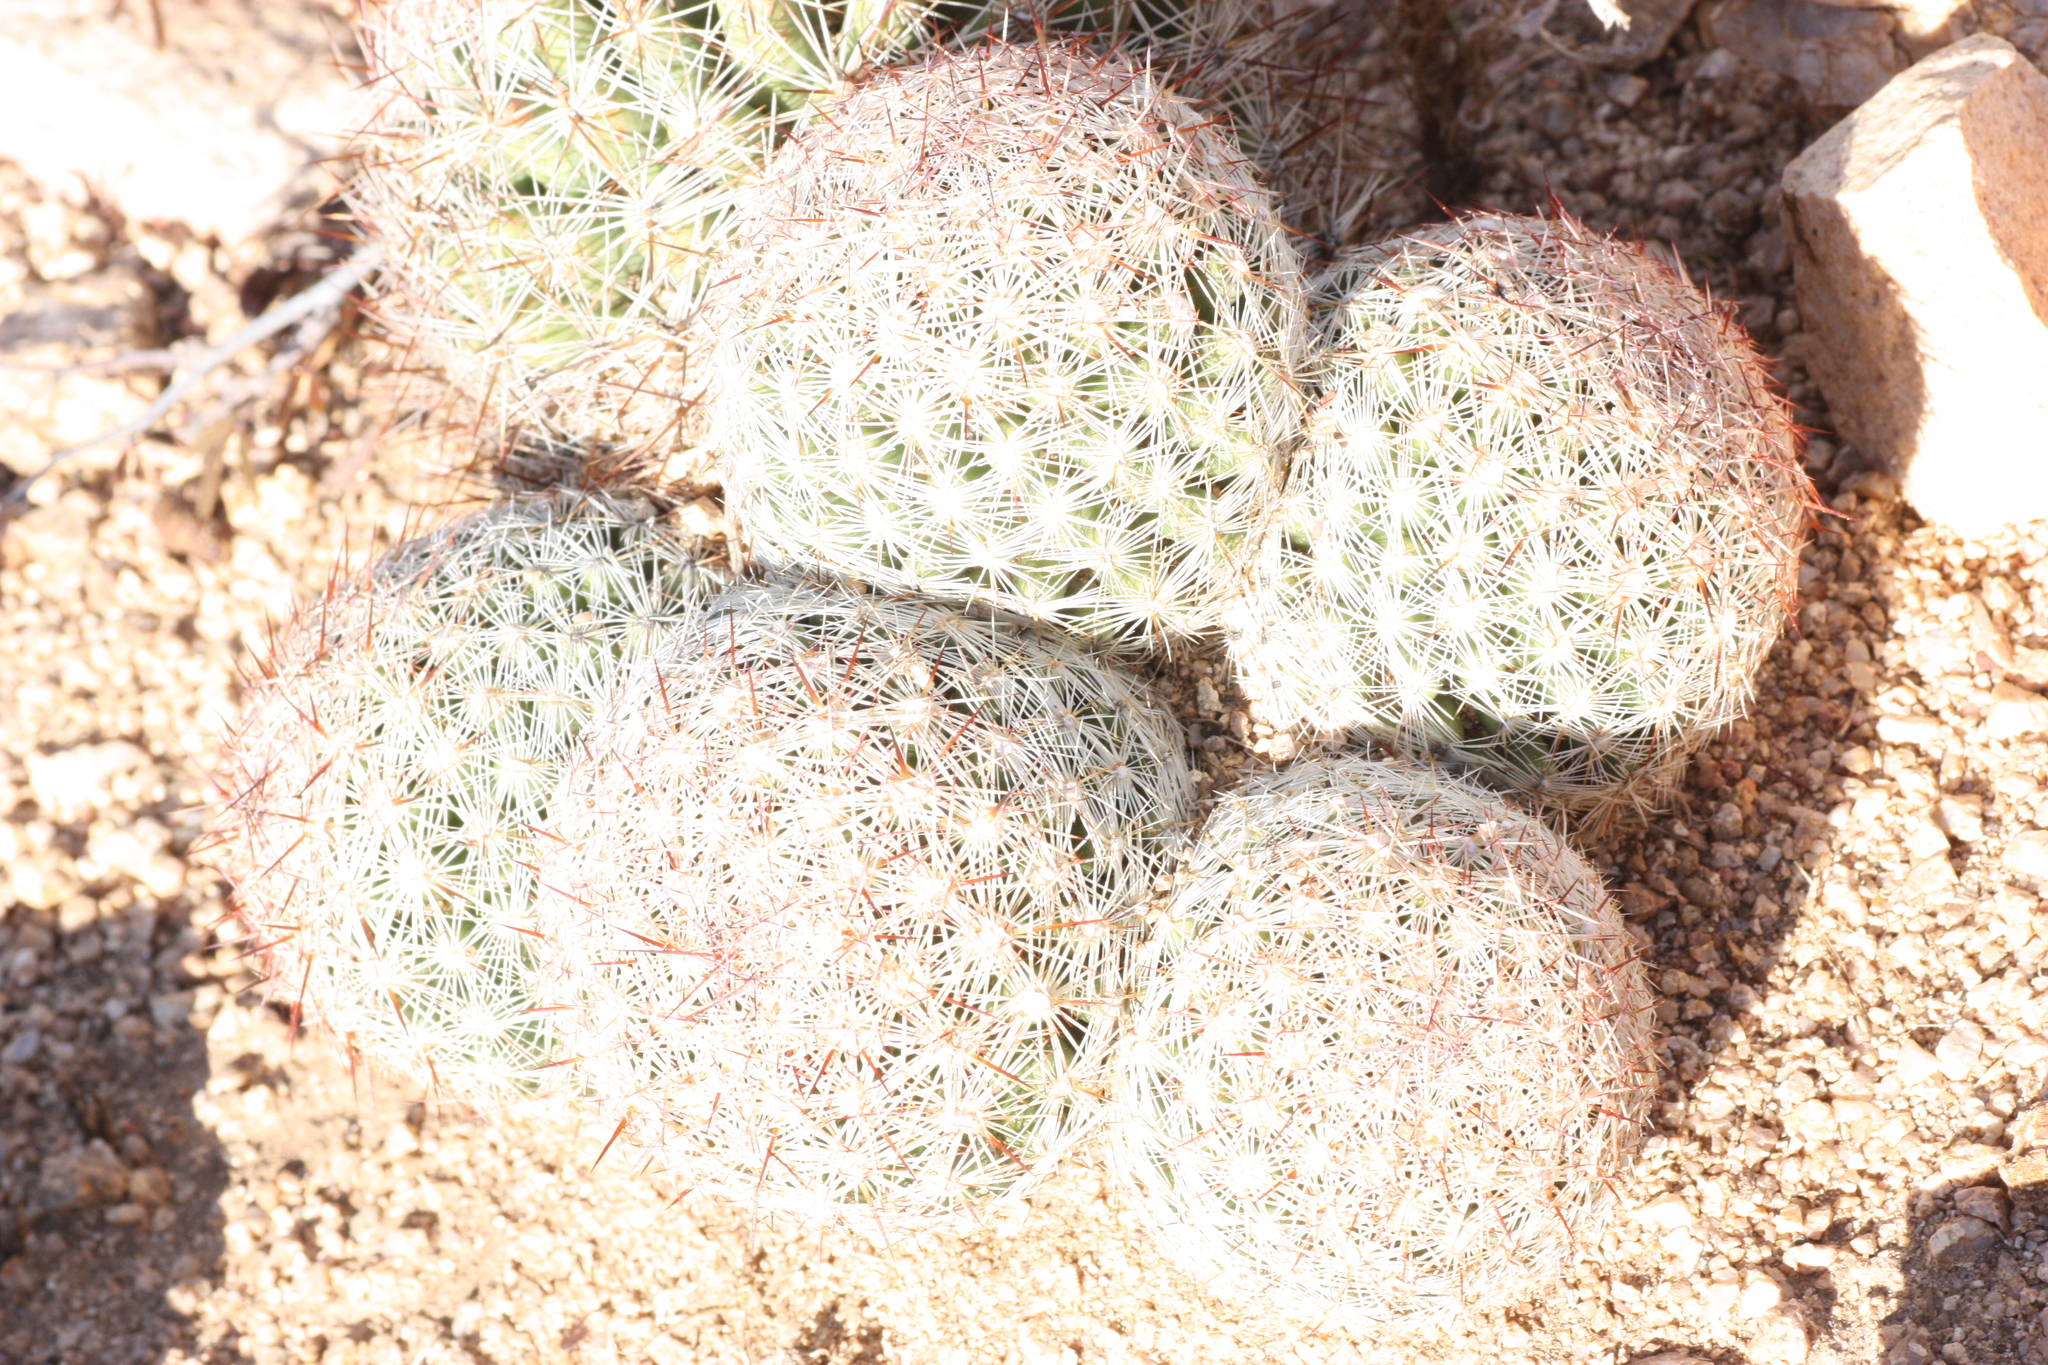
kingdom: Plantae
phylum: Tracheophyta
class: Magnoliopsida
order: Caryophyllales
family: Cactaceae
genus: Pelecyphora
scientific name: Pelecyphora vivipara
